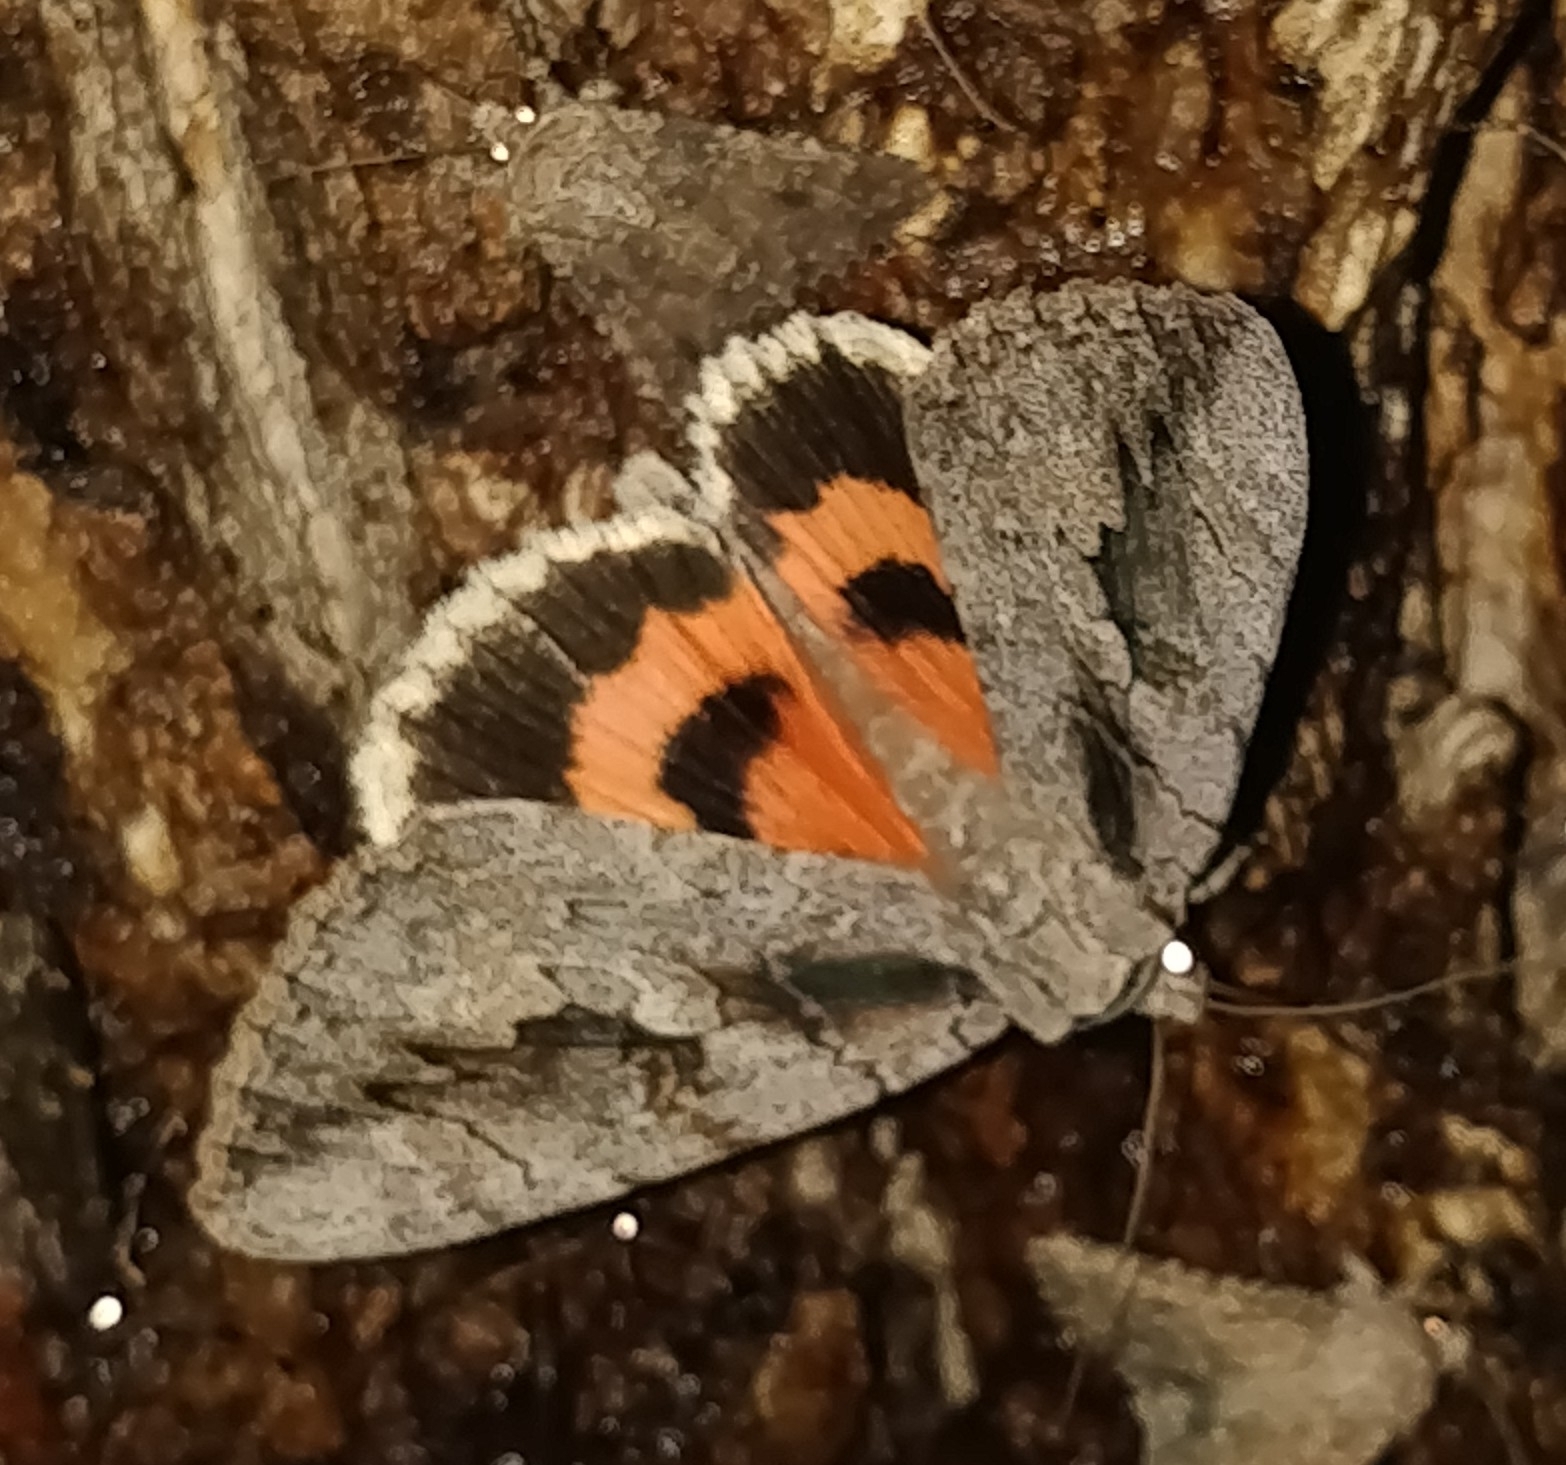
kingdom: Animalia
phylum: Arthropoda
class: Insecta
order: Lepidoptera
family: Erebidae
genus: Catocala
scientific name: Catocala amatrix
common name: Sweetheart underwing
